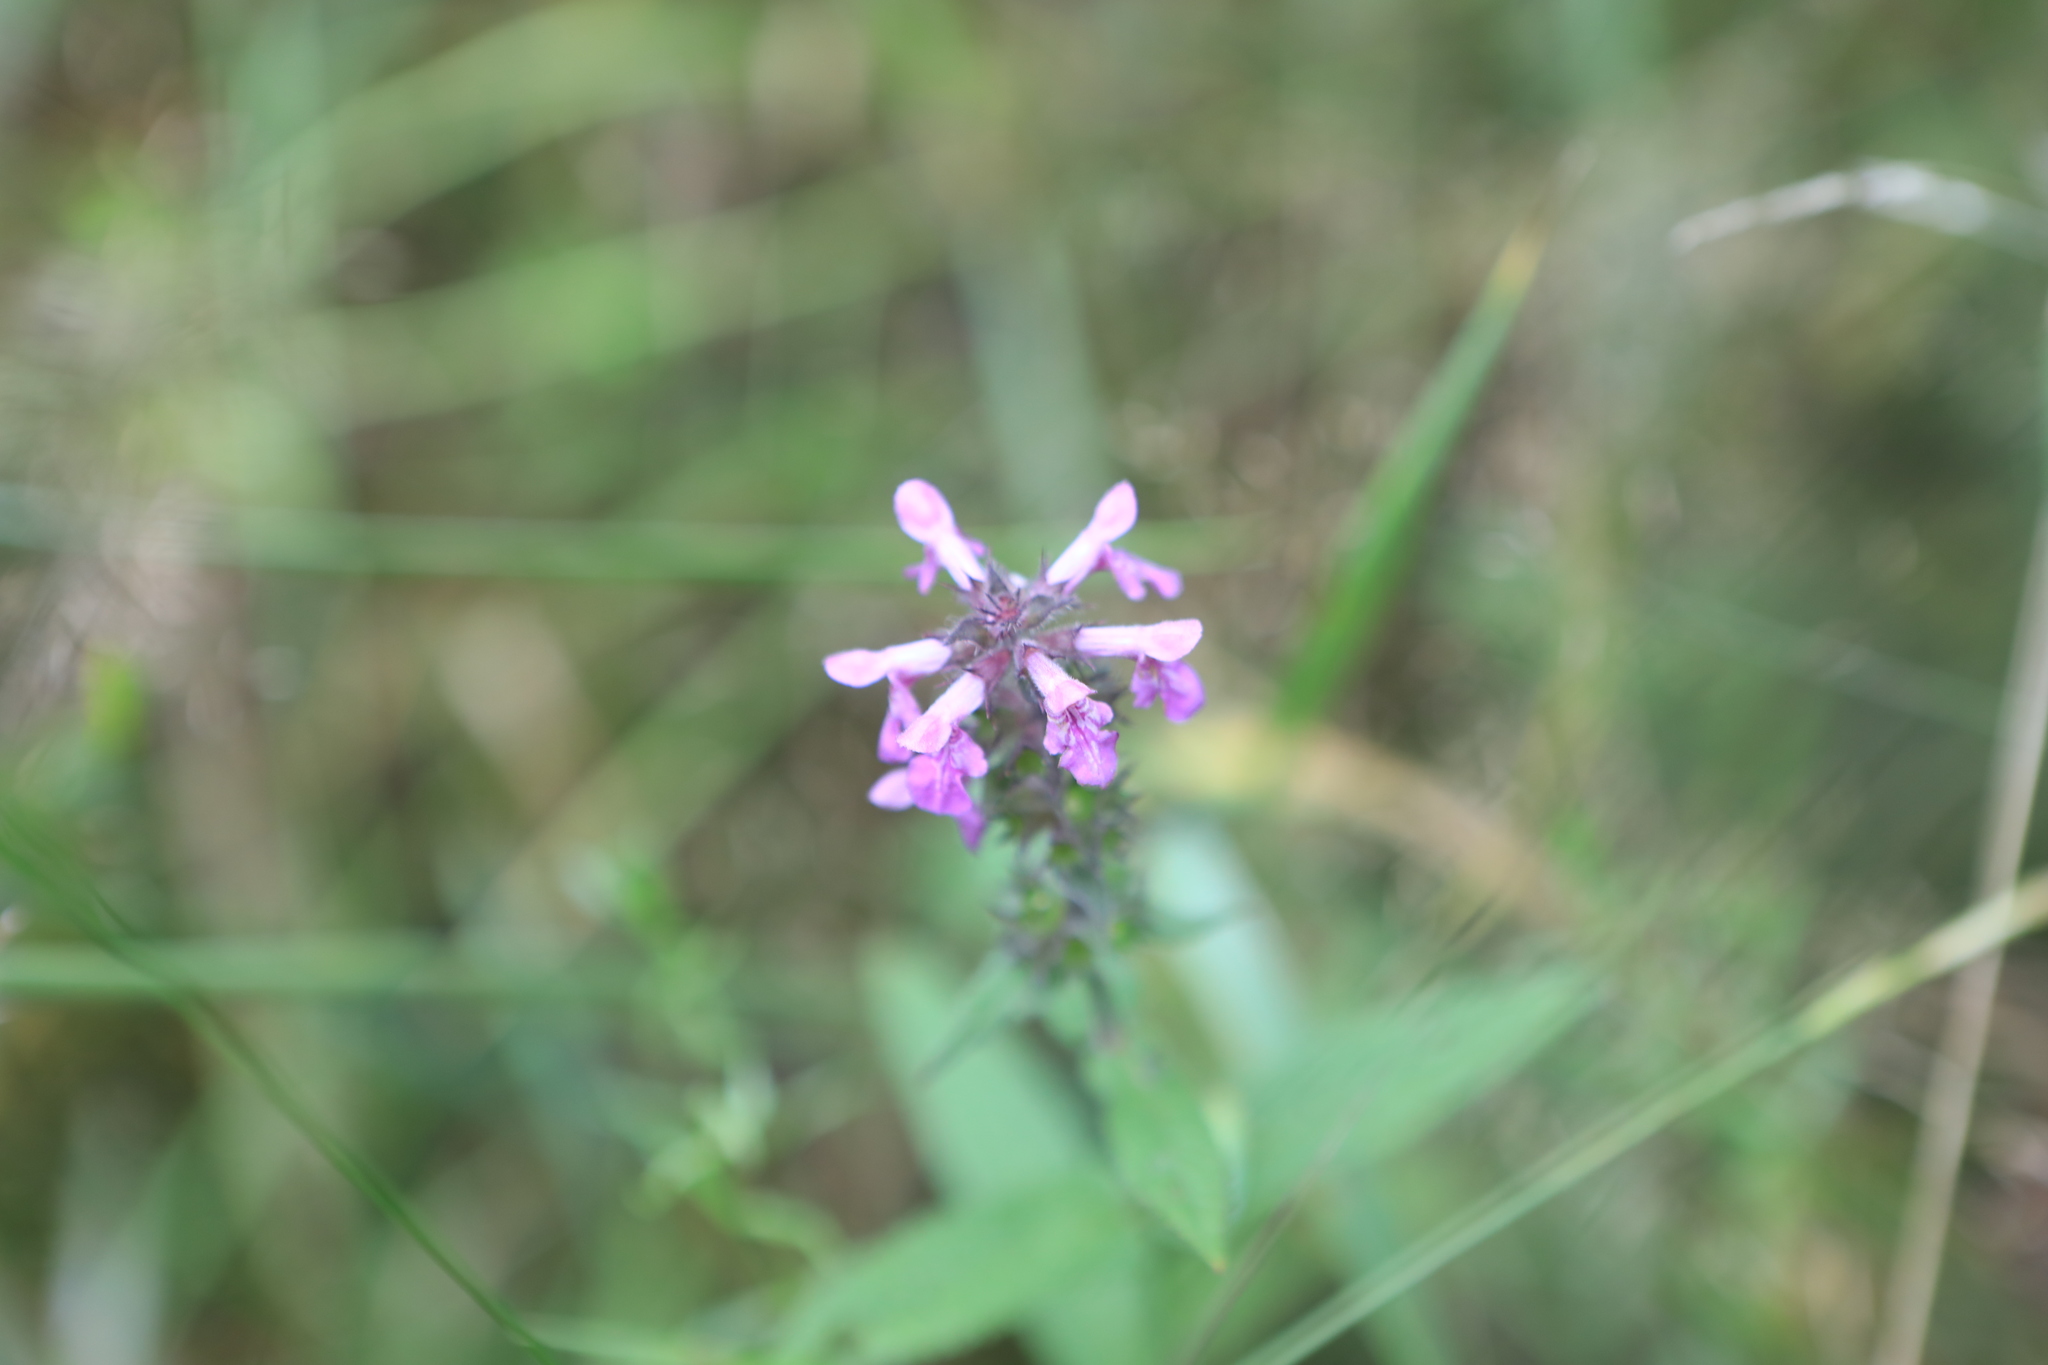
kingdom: Plantae
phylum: Tracheophyta
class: Magnoliopsida
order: Lamiales
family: Lamiaceae
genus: Stachys
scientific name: Stachys palustris
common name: Marsh woundwort
